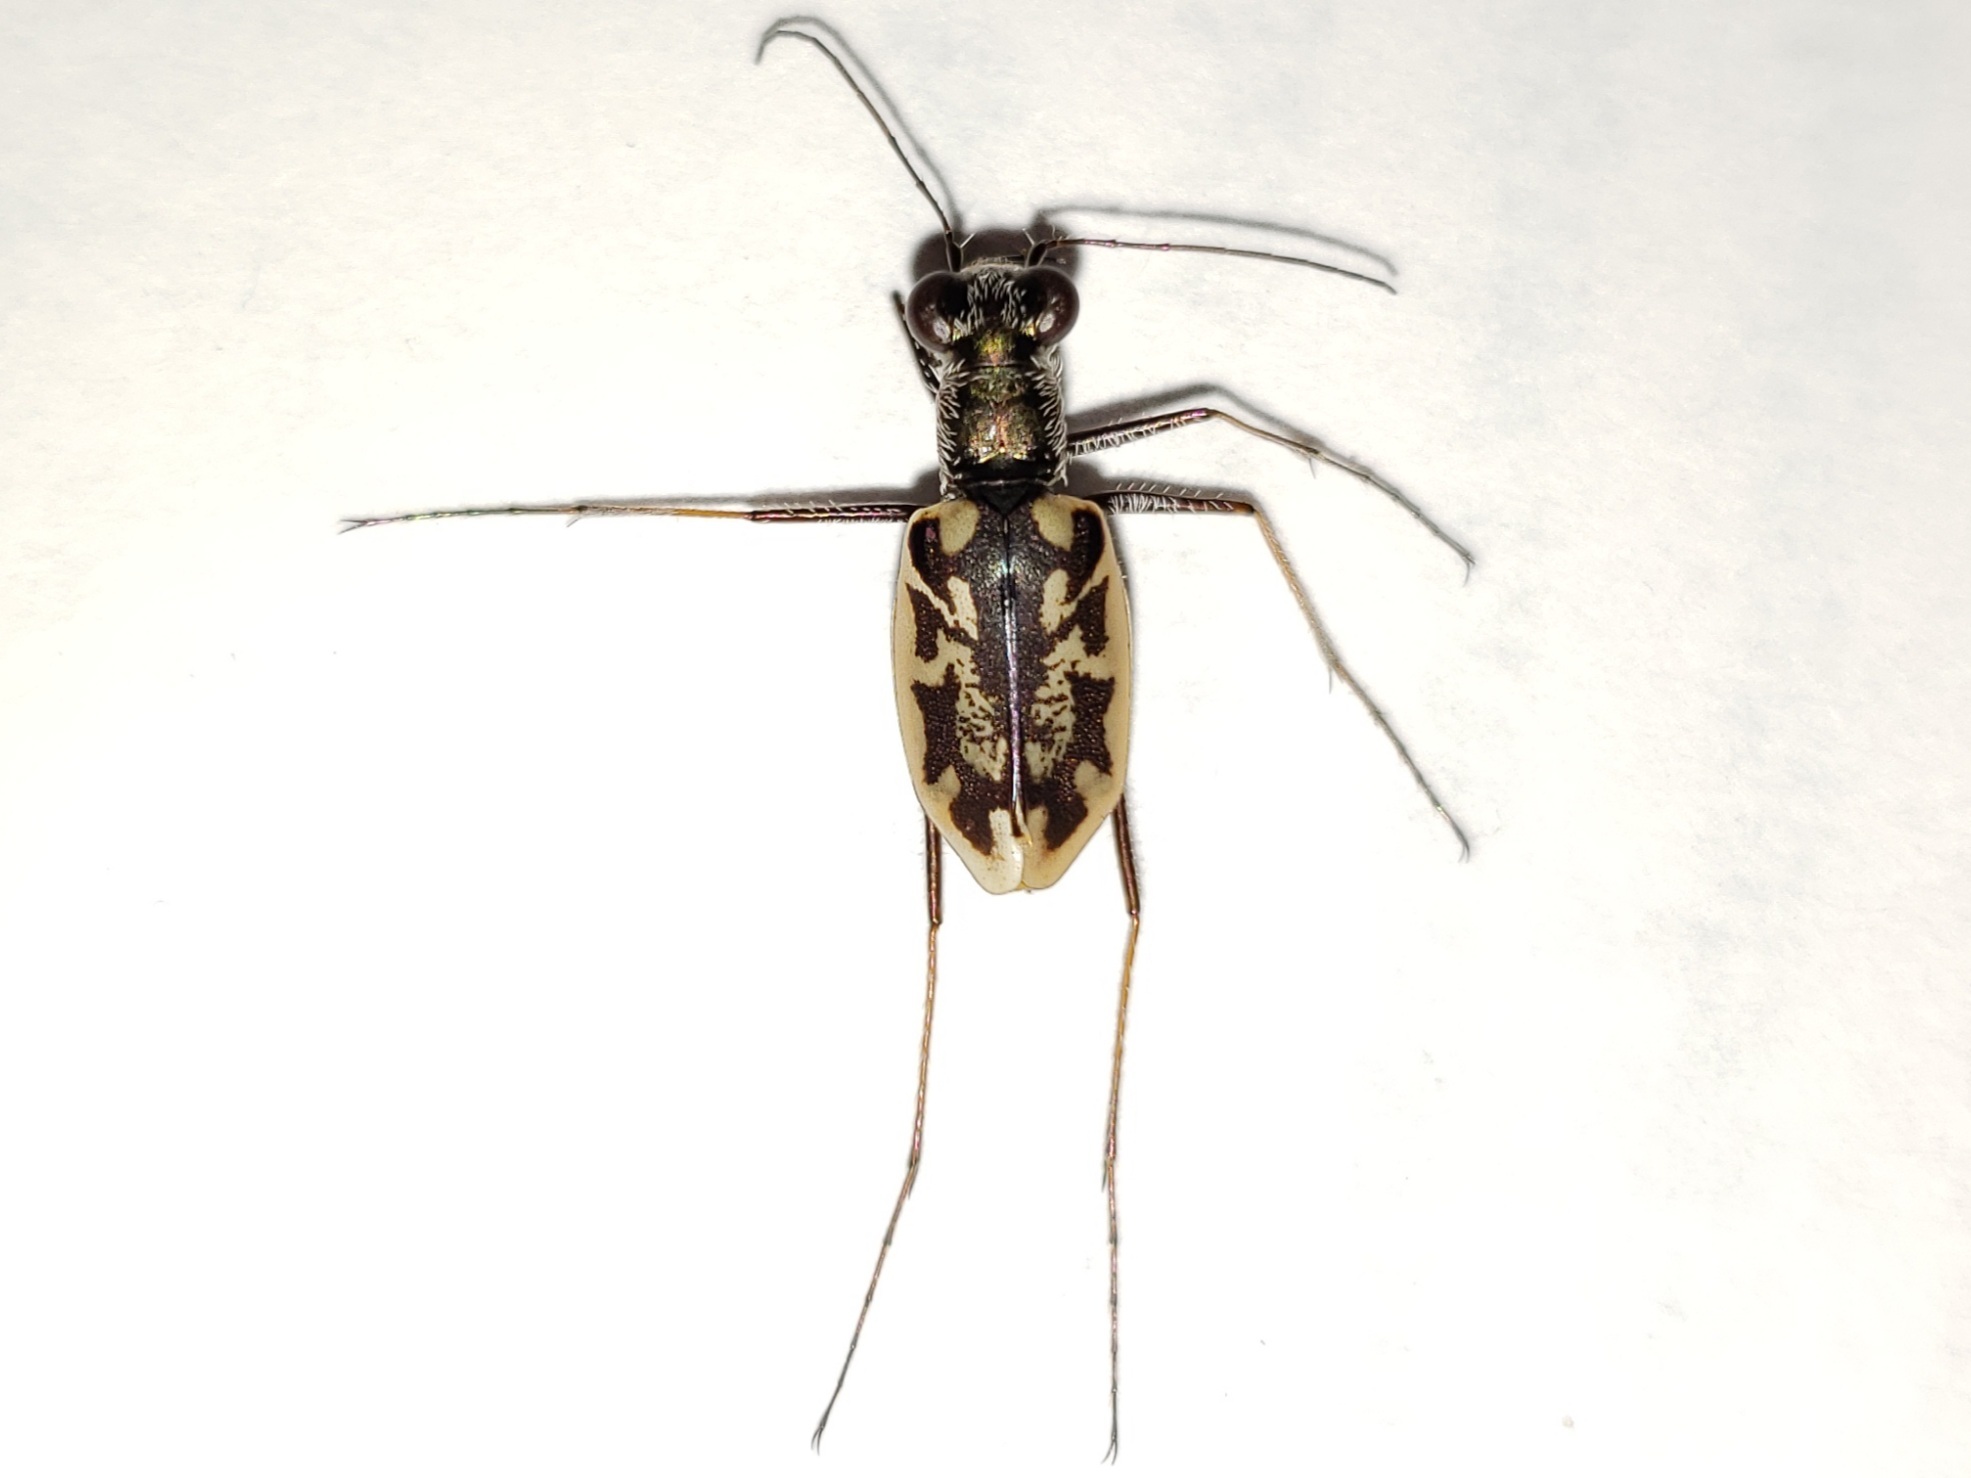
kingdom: Animalia
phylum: Arthropoda
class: Insecta
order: Coleoptera
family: Carabidae
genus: Ellipsoptera
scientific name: Ellipsoptera hamata
